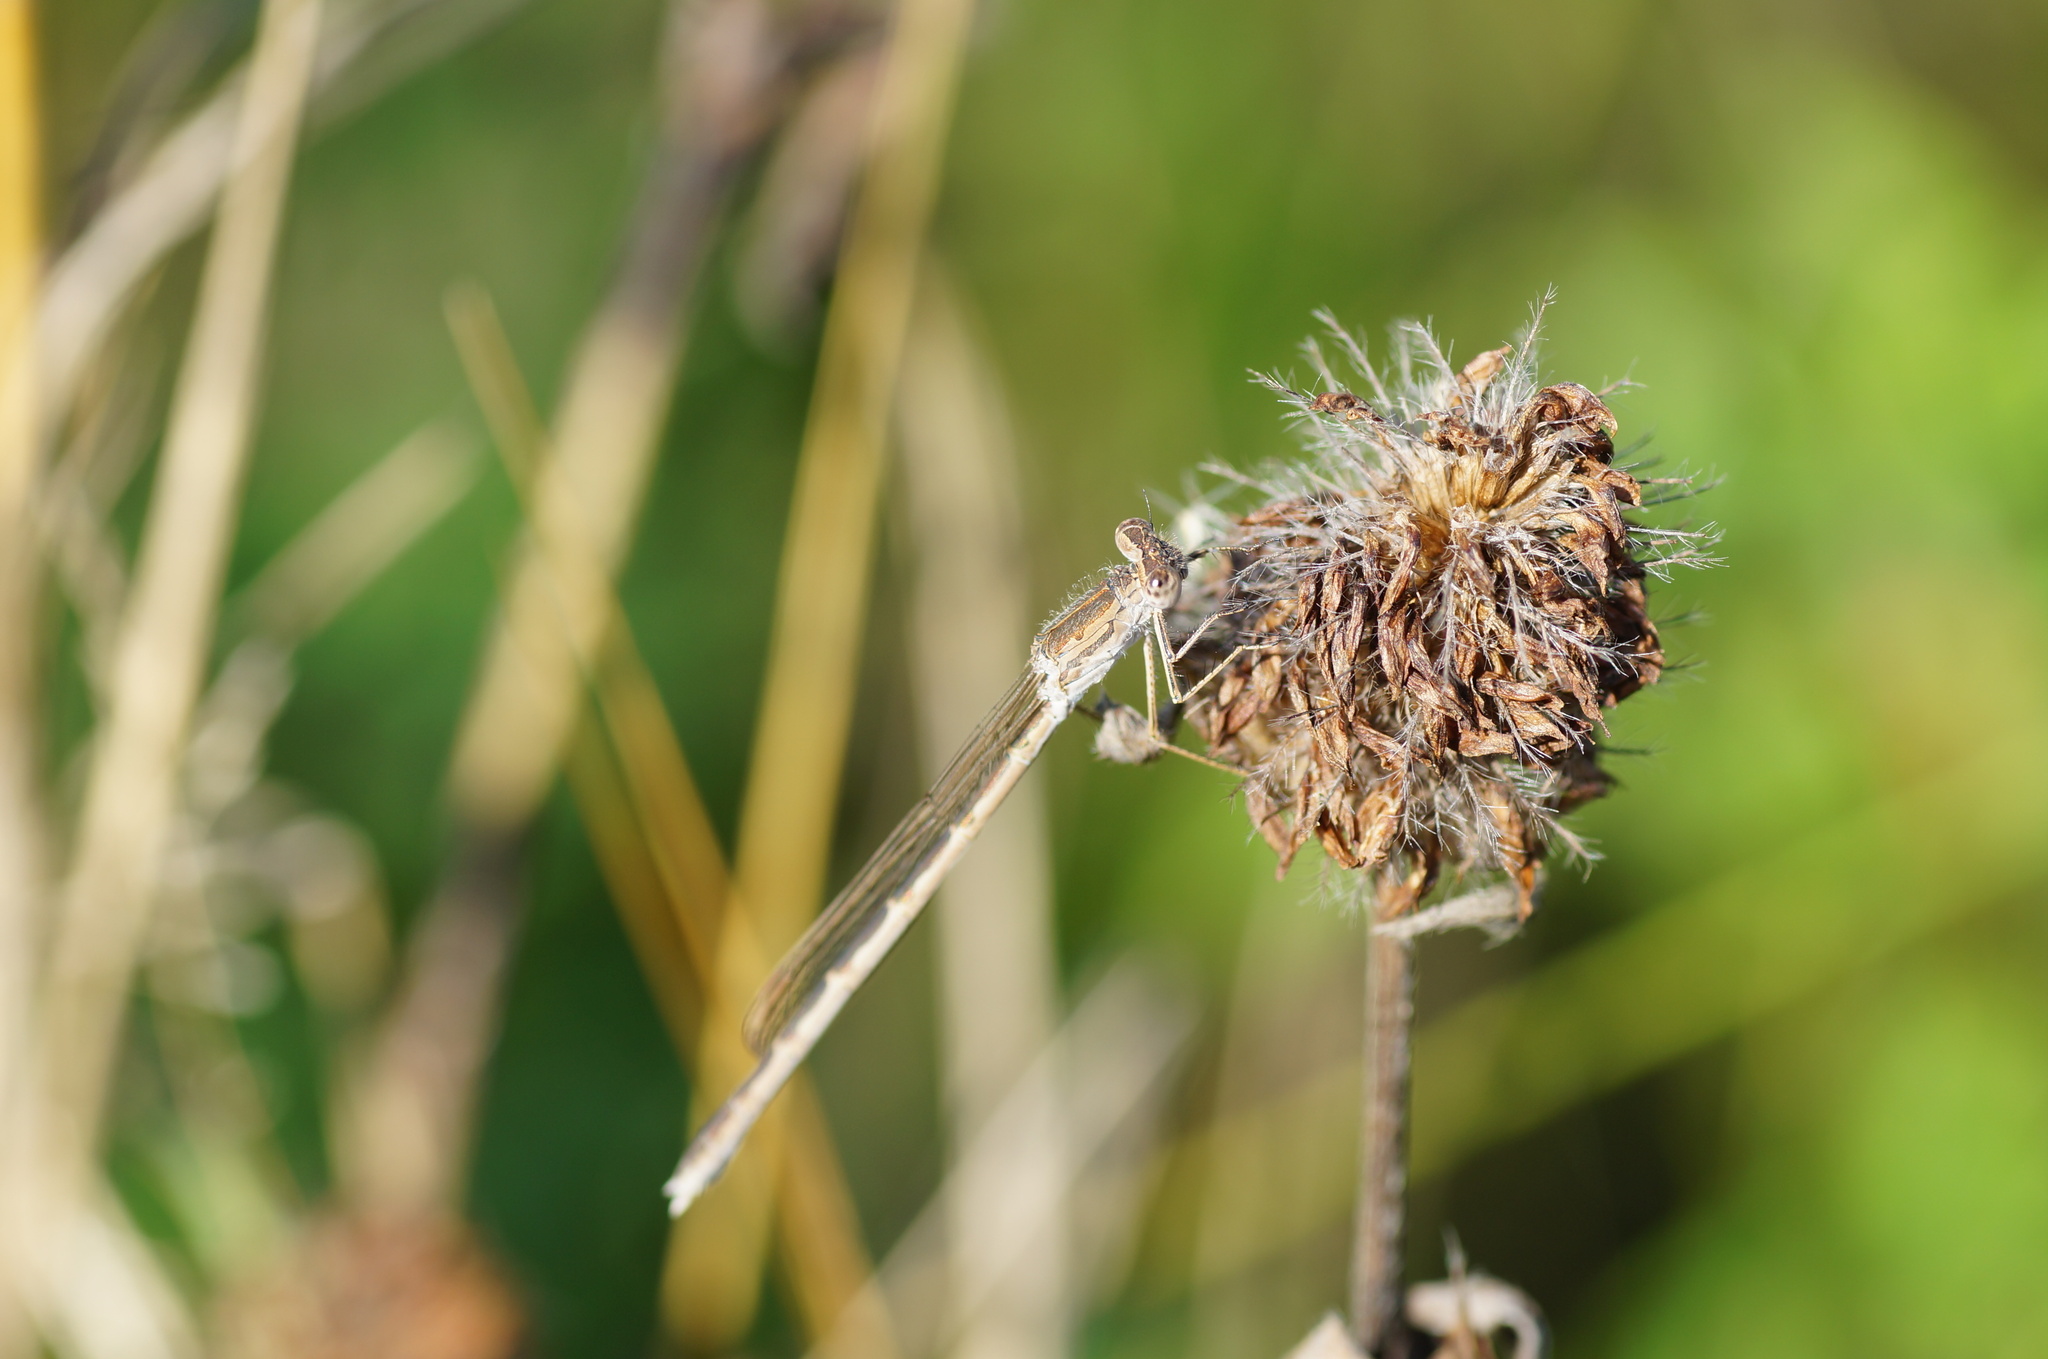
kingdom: Animalia
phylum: Arthropoda
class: Insecta
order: Odonata
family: Lestidae
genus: Sympecma
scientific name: Sympecma paedisca
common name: Siberian winter damsel
